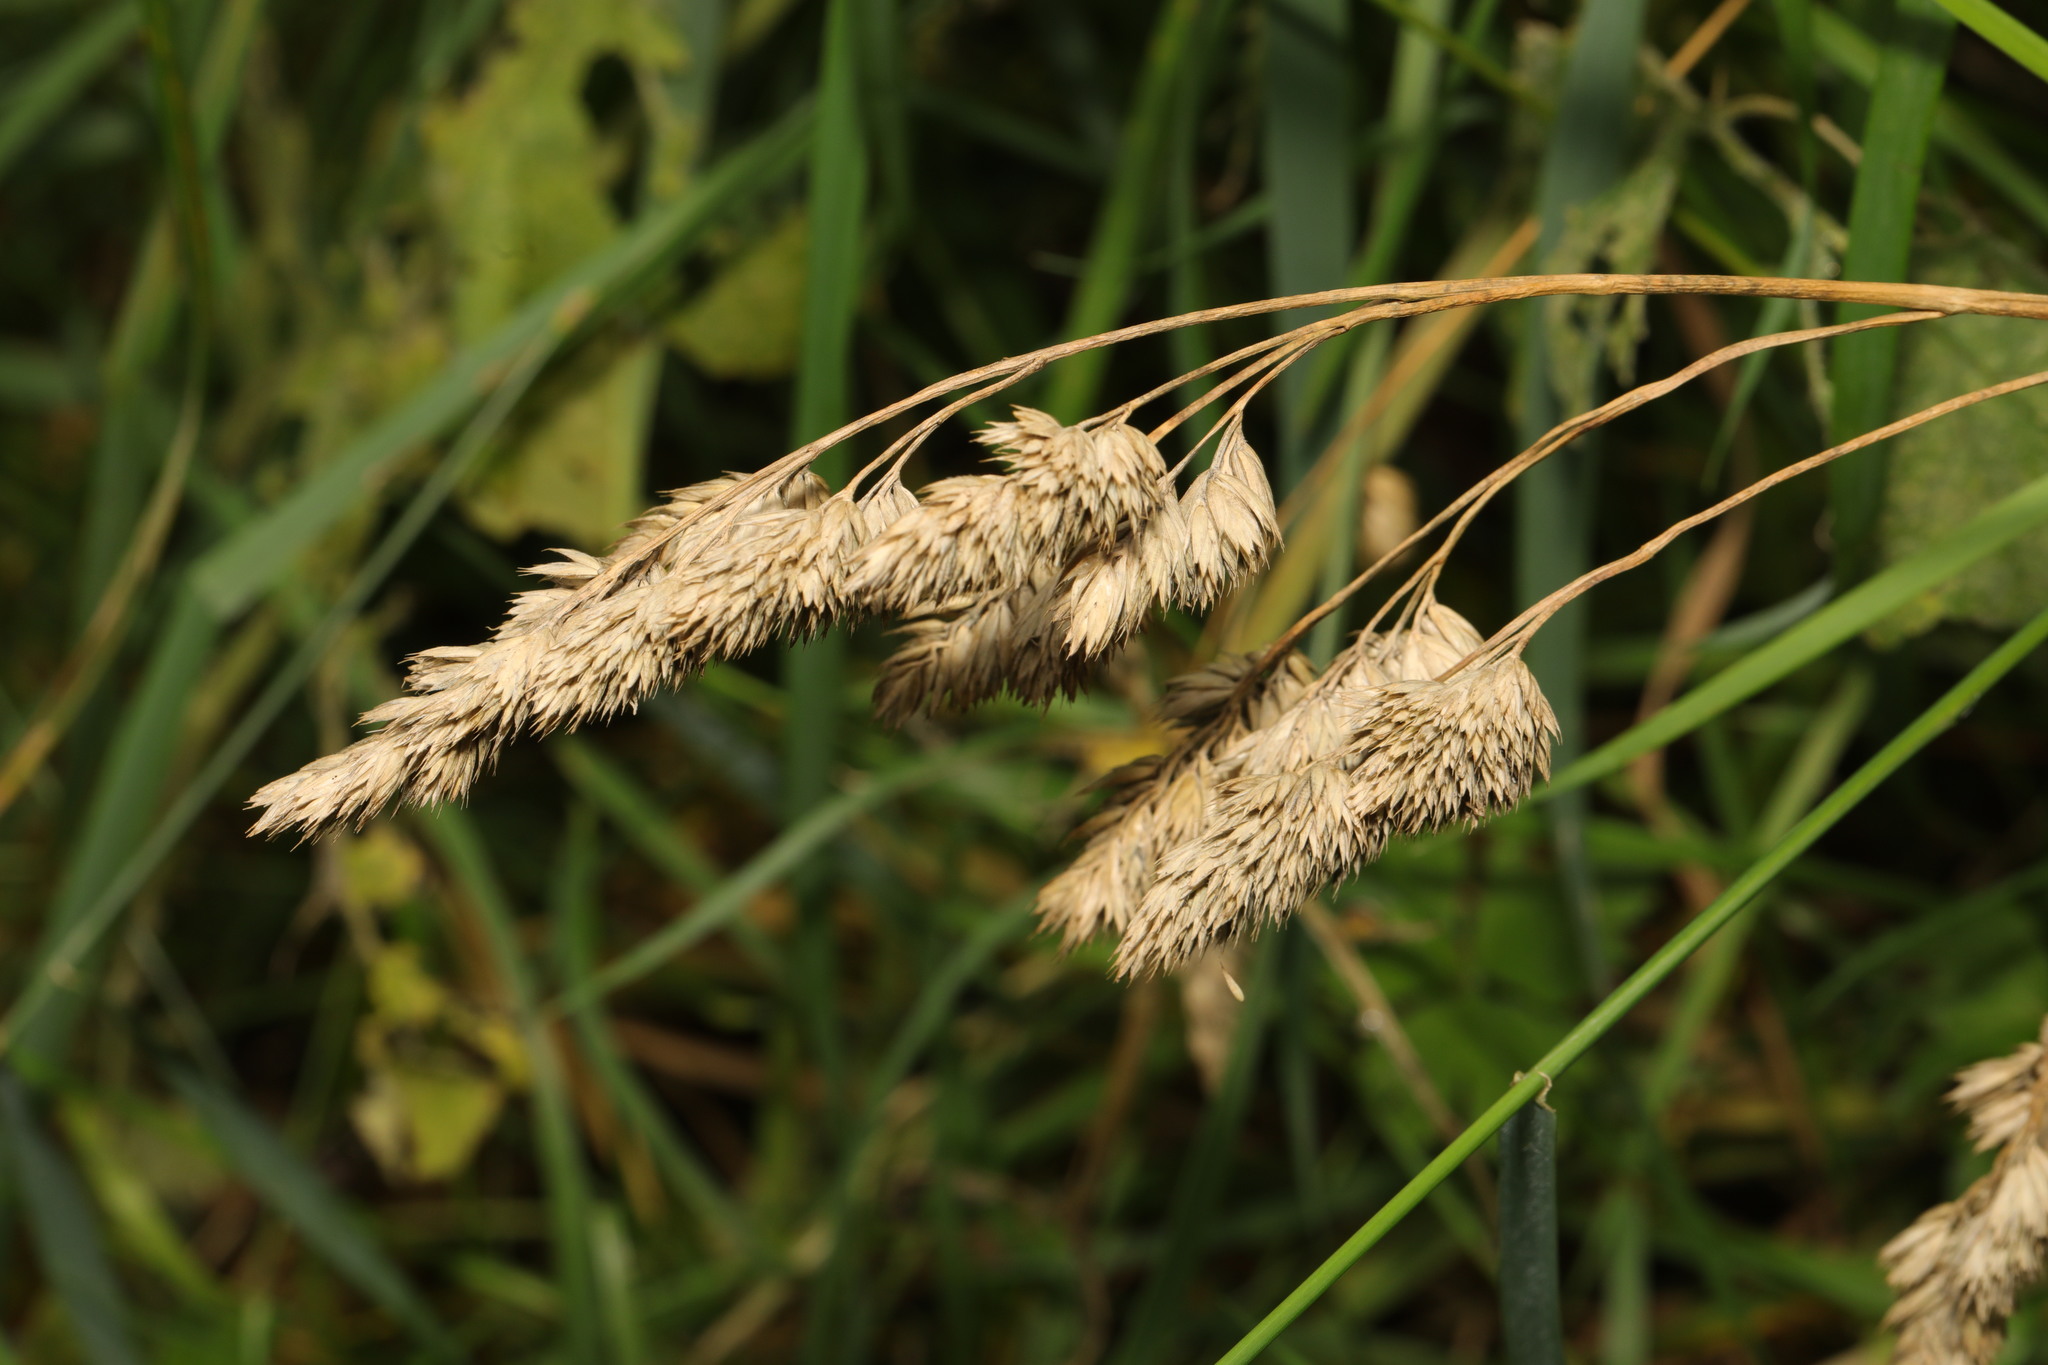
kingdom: Plantae
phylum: Tracheophyta
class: Liliopsida
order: Poales
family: Poaceae
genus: Dactylis
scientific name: Dactylis glomerata
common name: Orchardgrass
